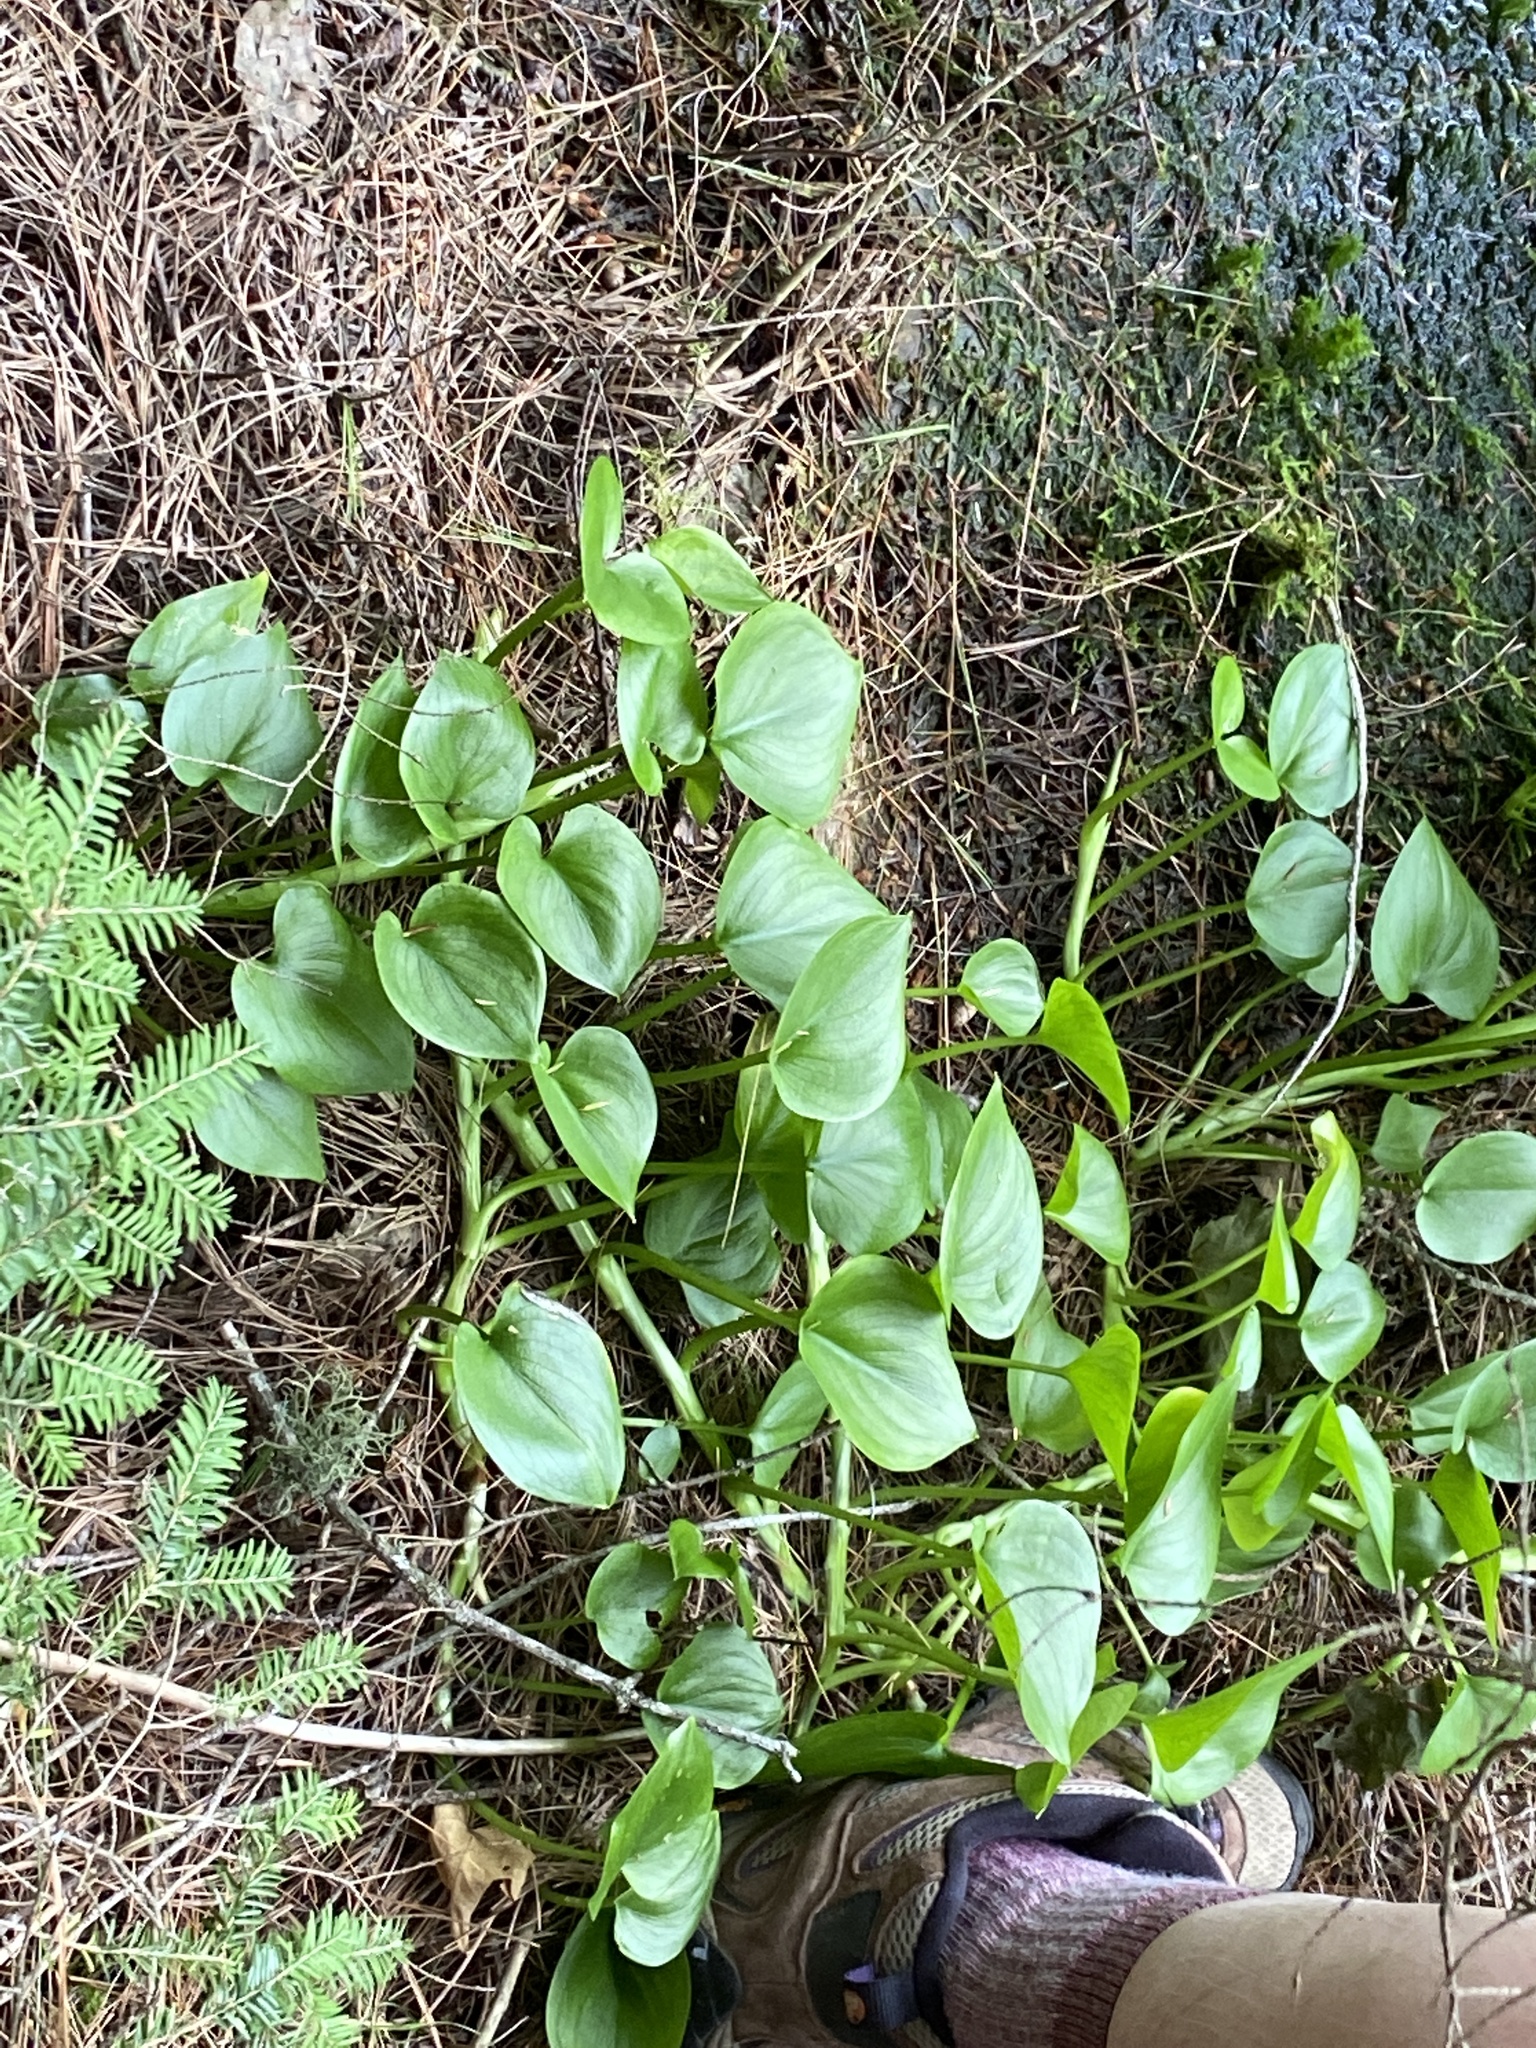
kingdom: Plantae
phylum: Tracheophyta
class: Liliopsida
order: Alismatales
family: Araceae
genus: Calla
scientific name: Calla palustris
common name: Bog arum
